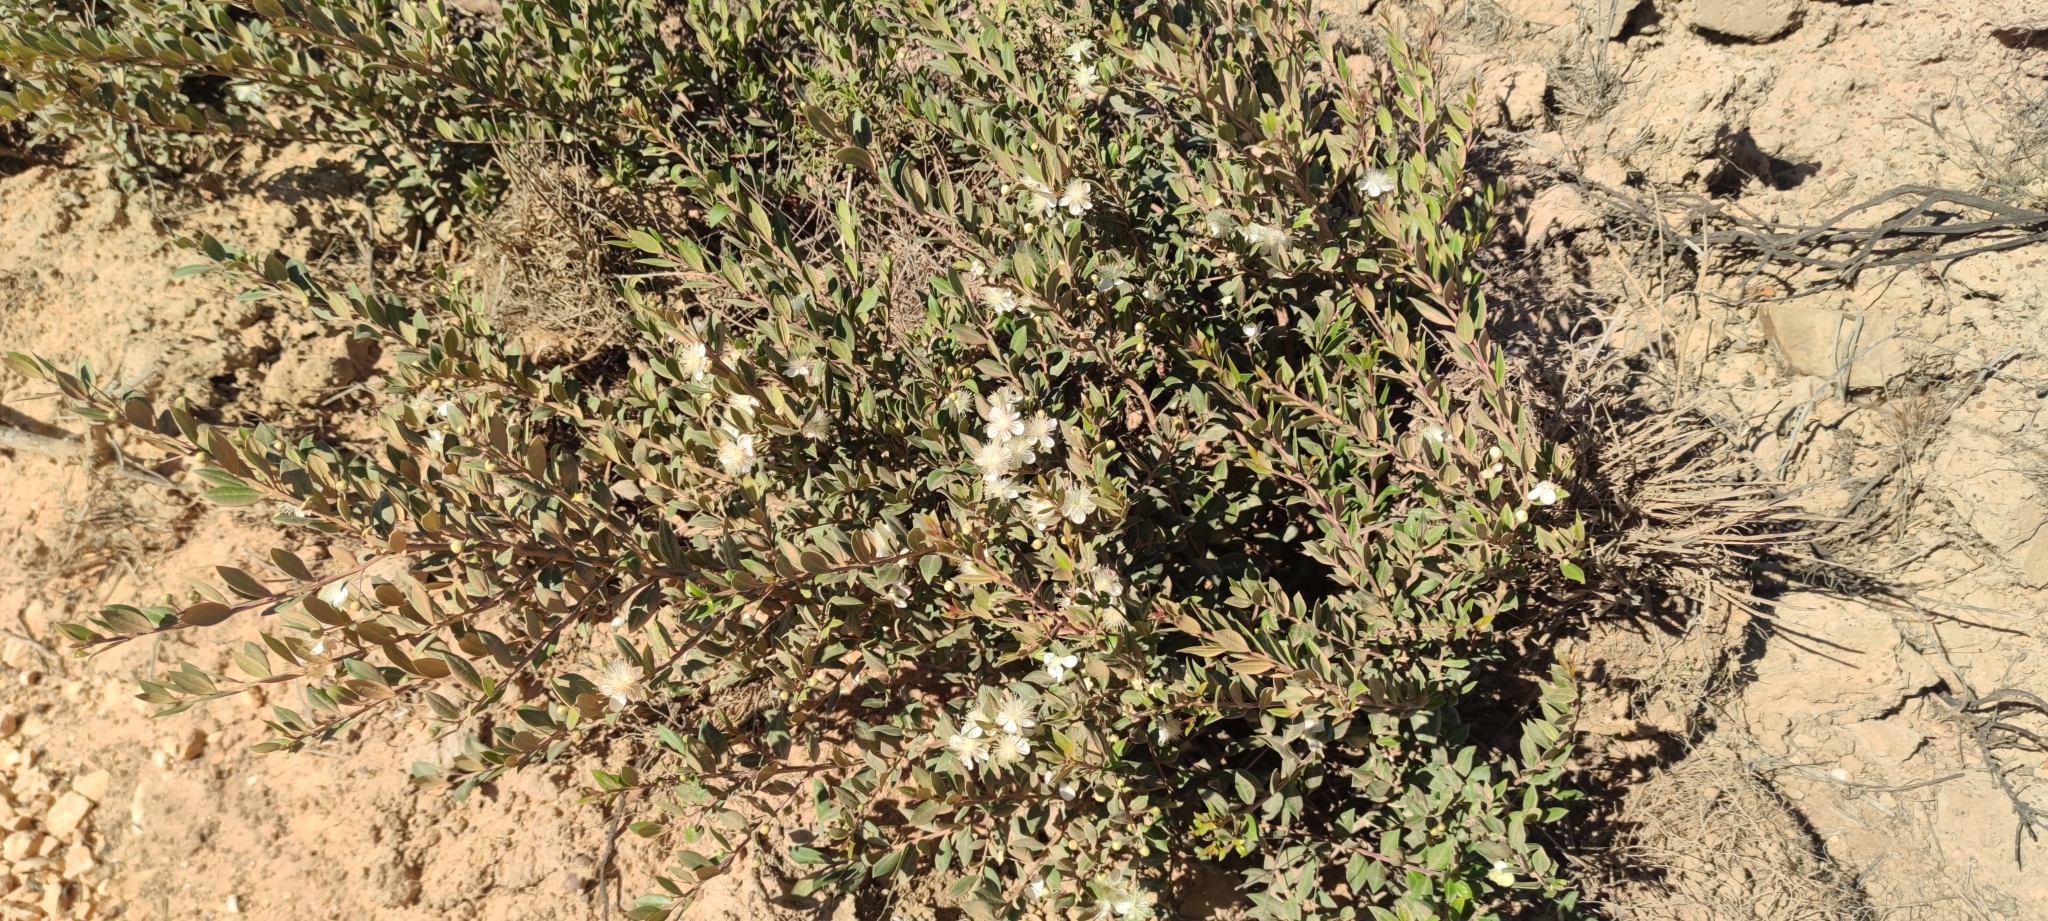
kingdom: Plantae
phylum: Tracheophyta
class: Magnoliopsida
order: Myrtales
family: Myrtaceae
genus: Myrtus
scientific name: Myrtus communis
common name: Myrtle
